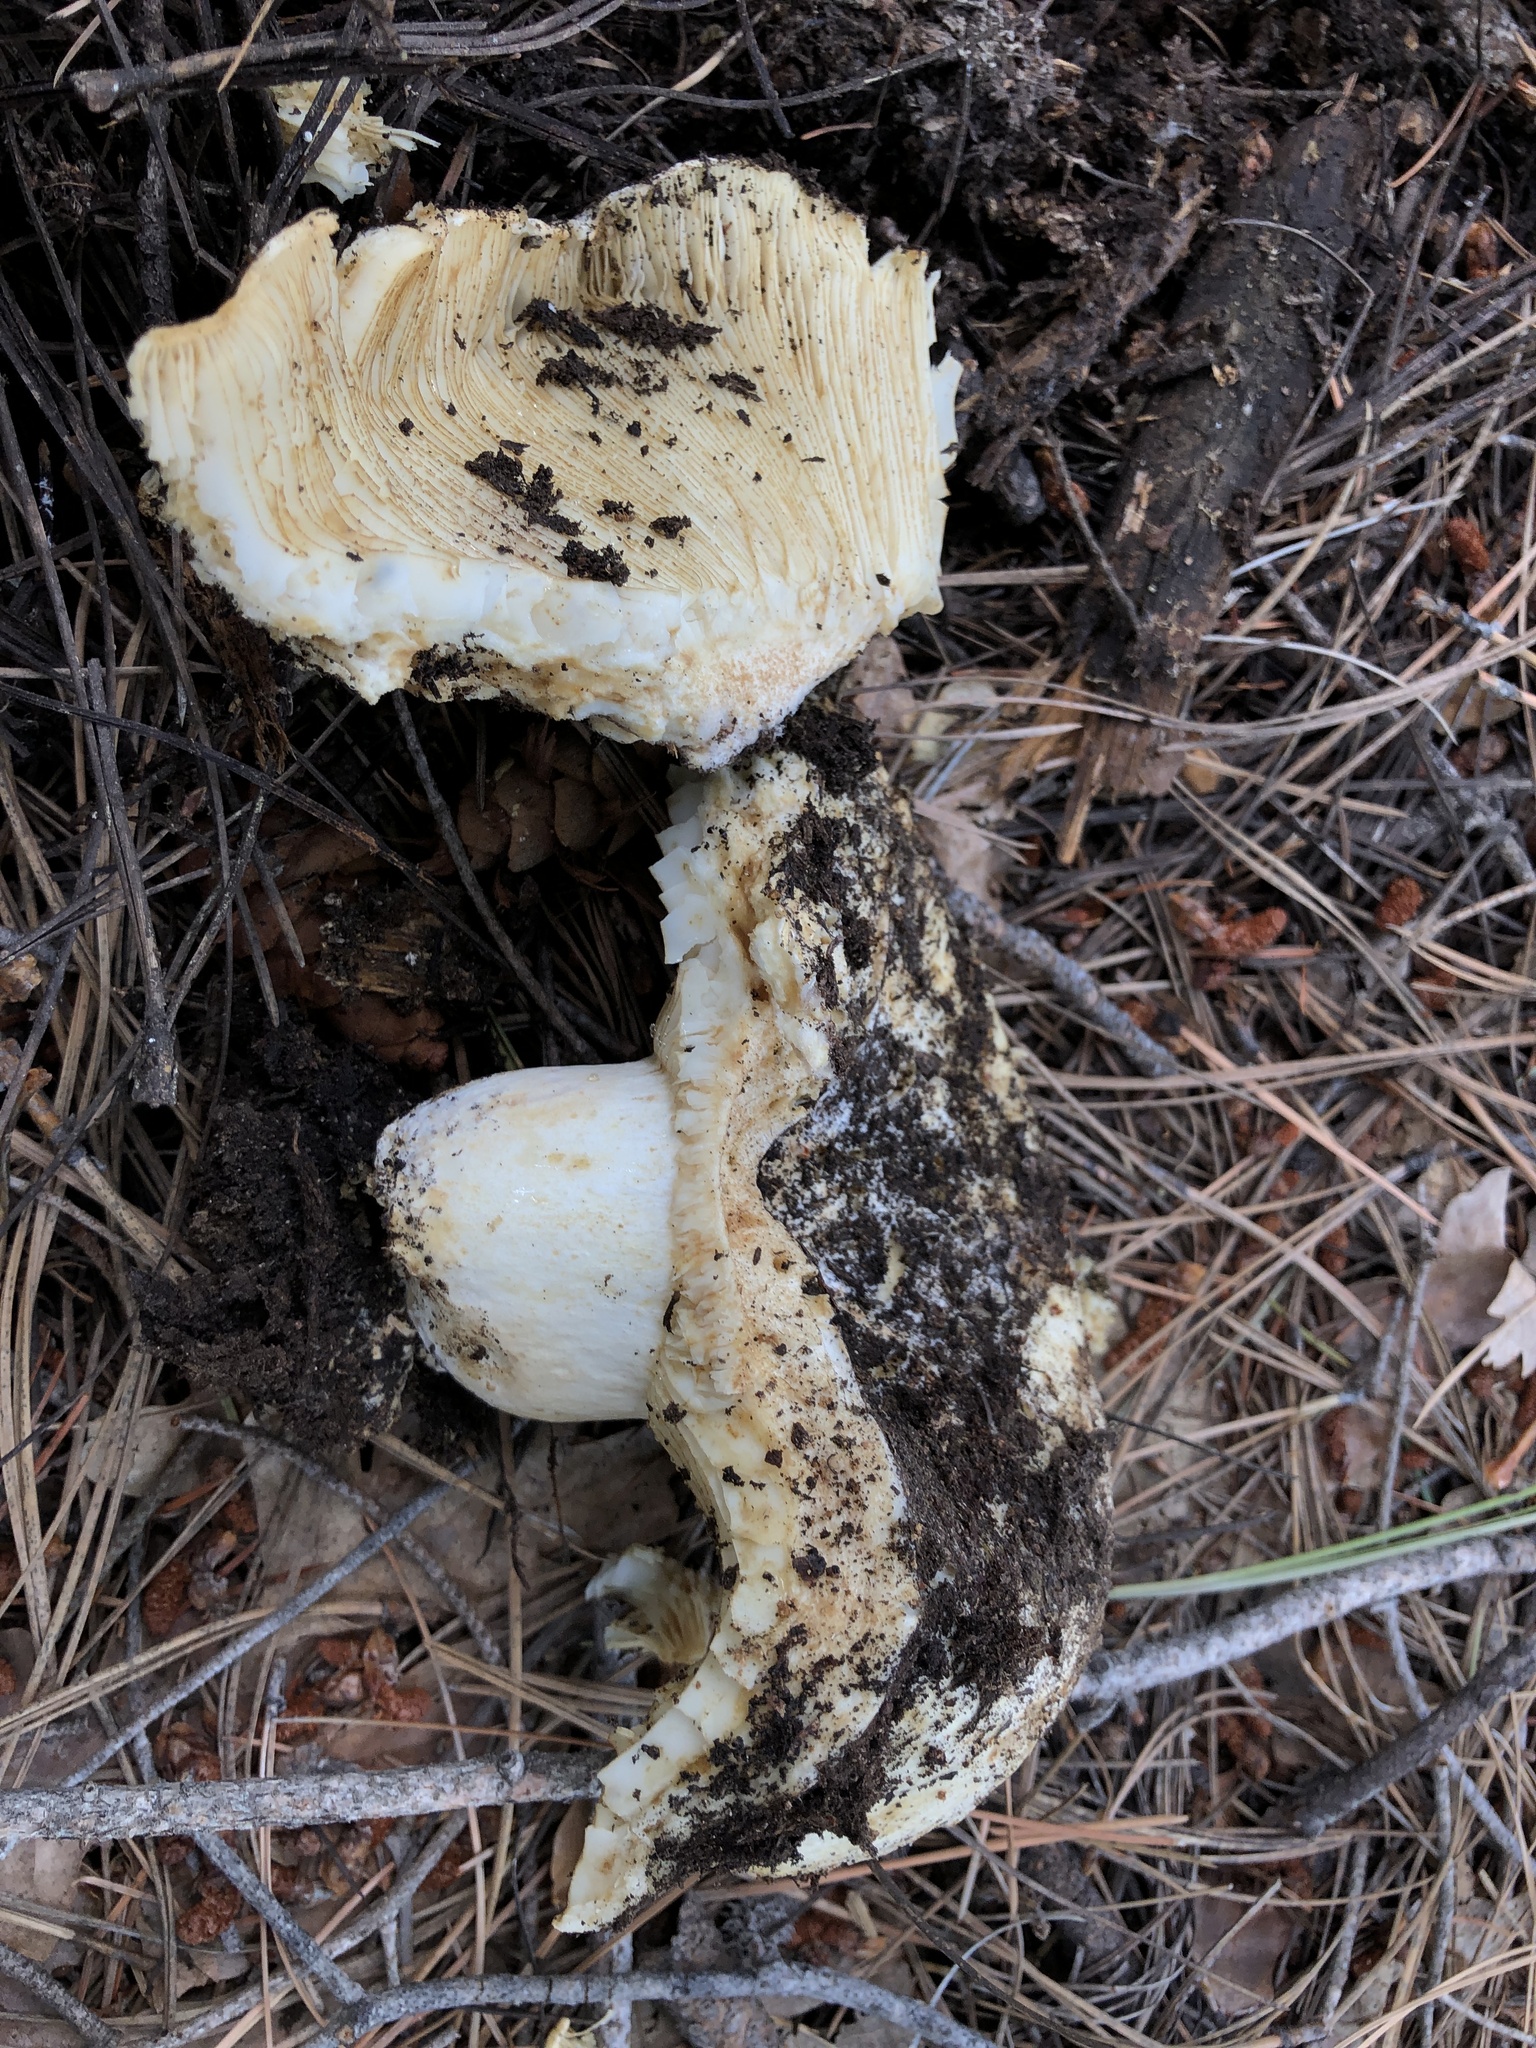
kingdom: Fungi
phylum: Basidiomycota
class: Agaricomycetes
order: Russulales
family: Russulaceae
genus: Russula
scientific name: Russula brevipes
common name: Short-stemmed russula
